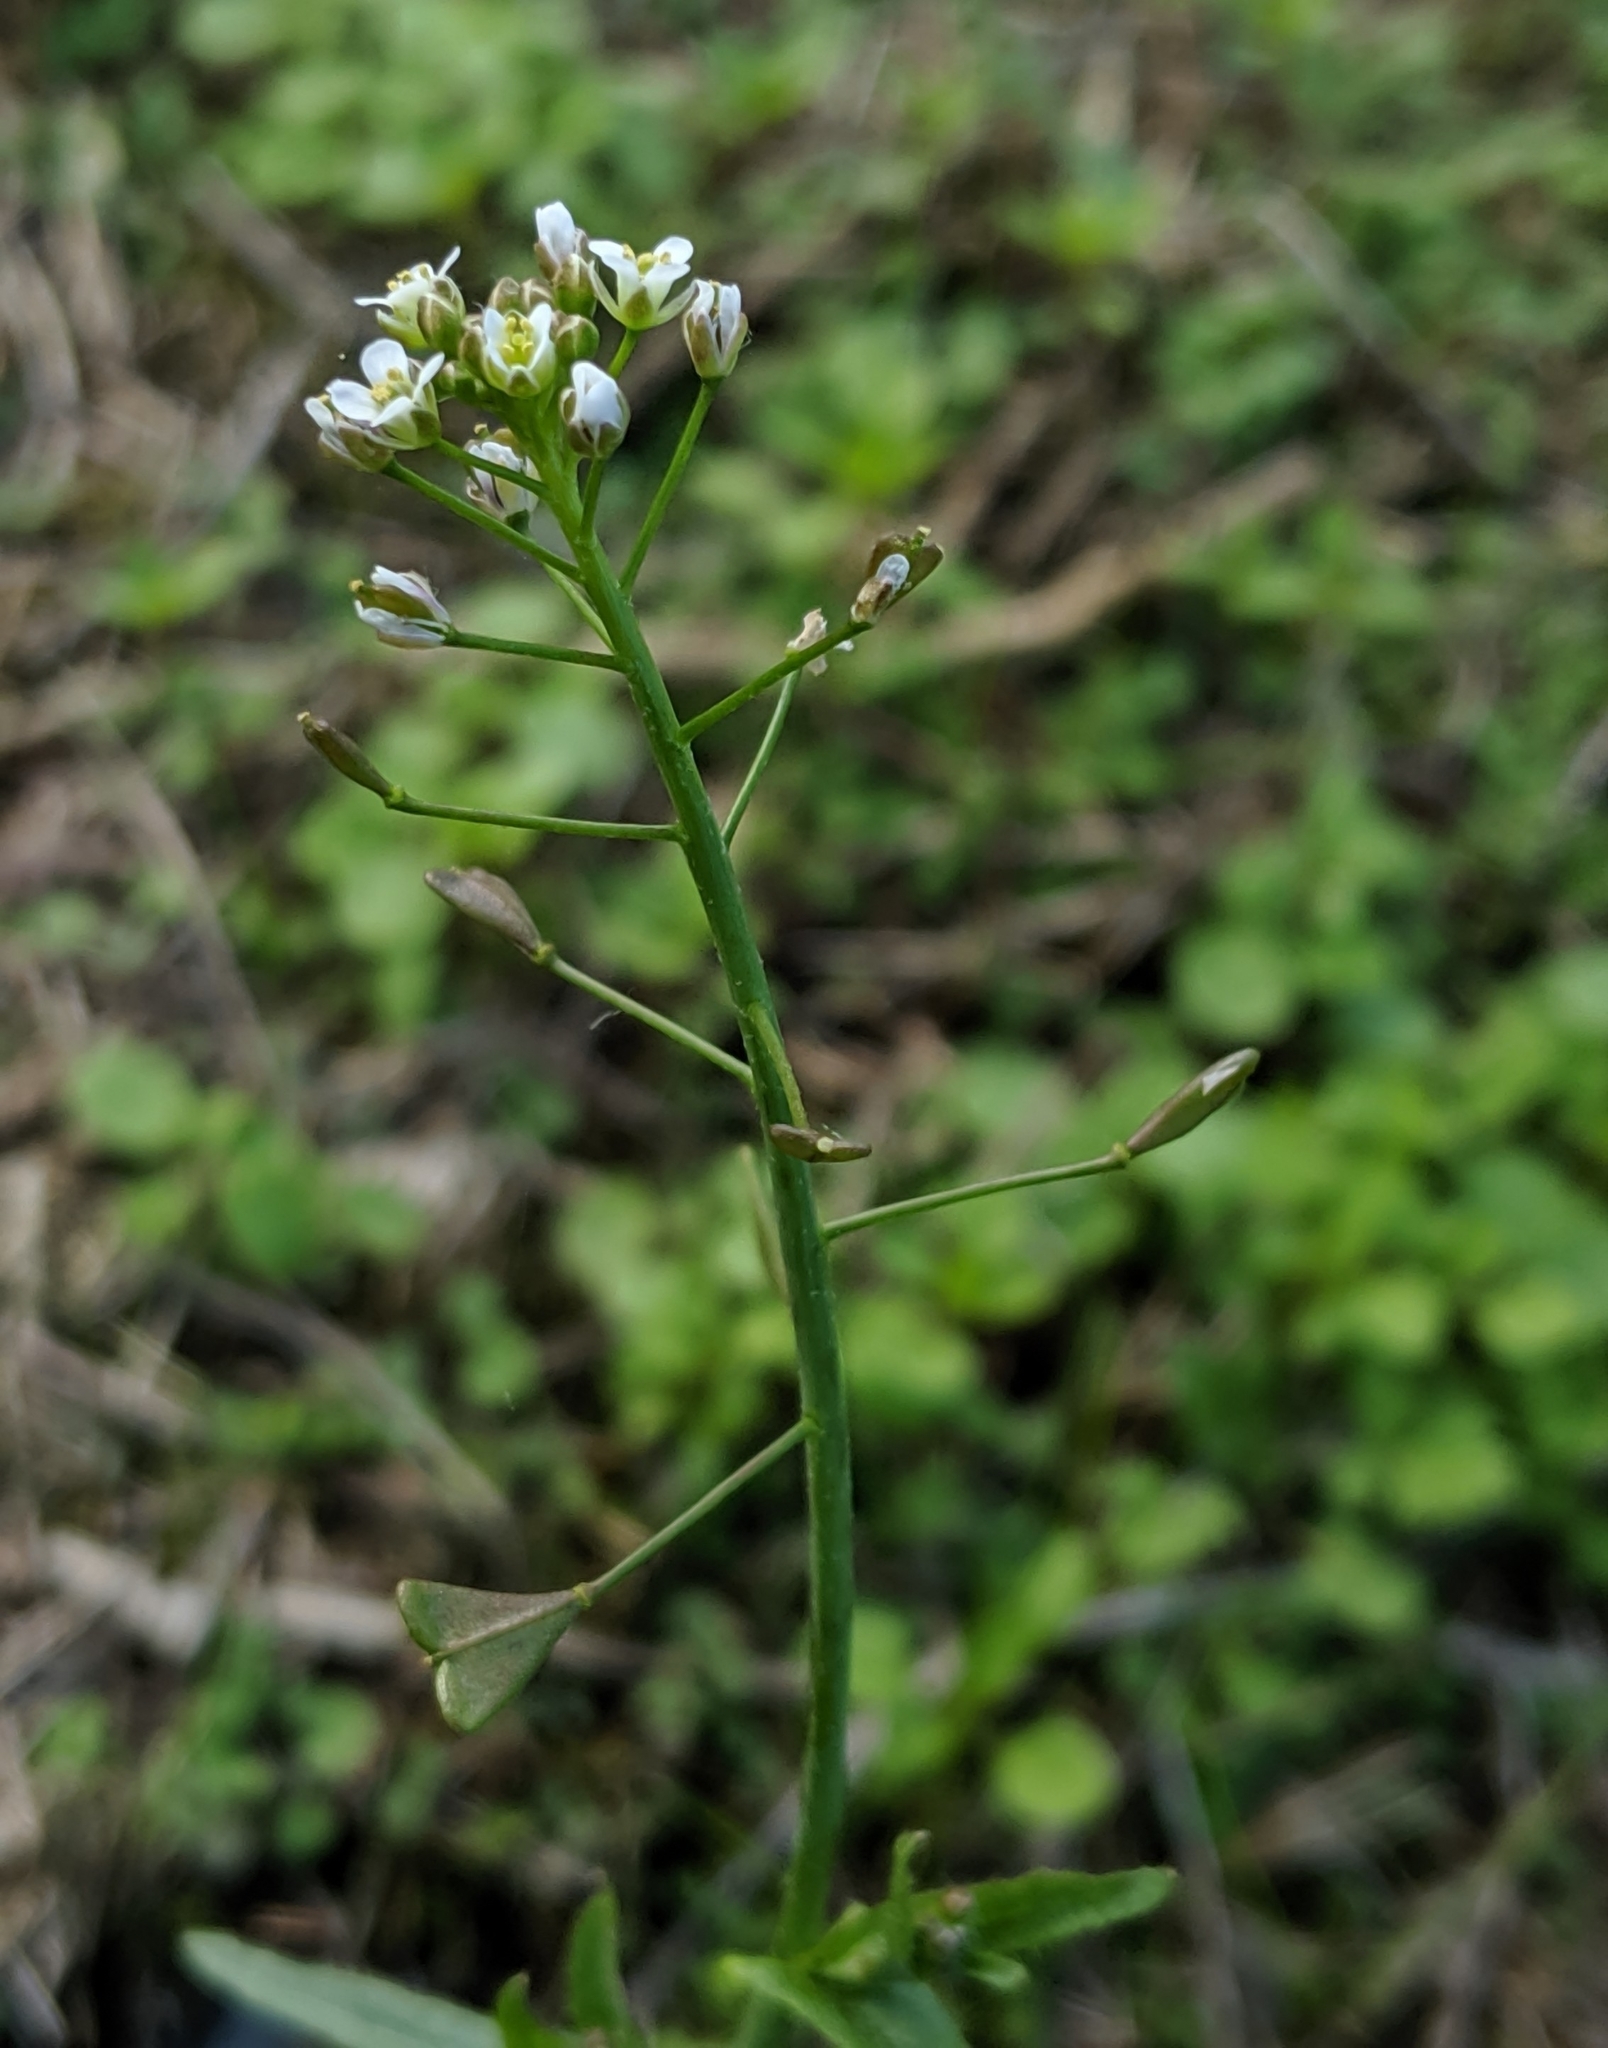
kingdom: Plantae
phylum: Tracheophyta
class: Magnoliopsida
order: Brassicales
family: Brassicaceae
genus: Capsella
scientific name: Capsella bursa-pastoris
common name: Shepherd's purse
